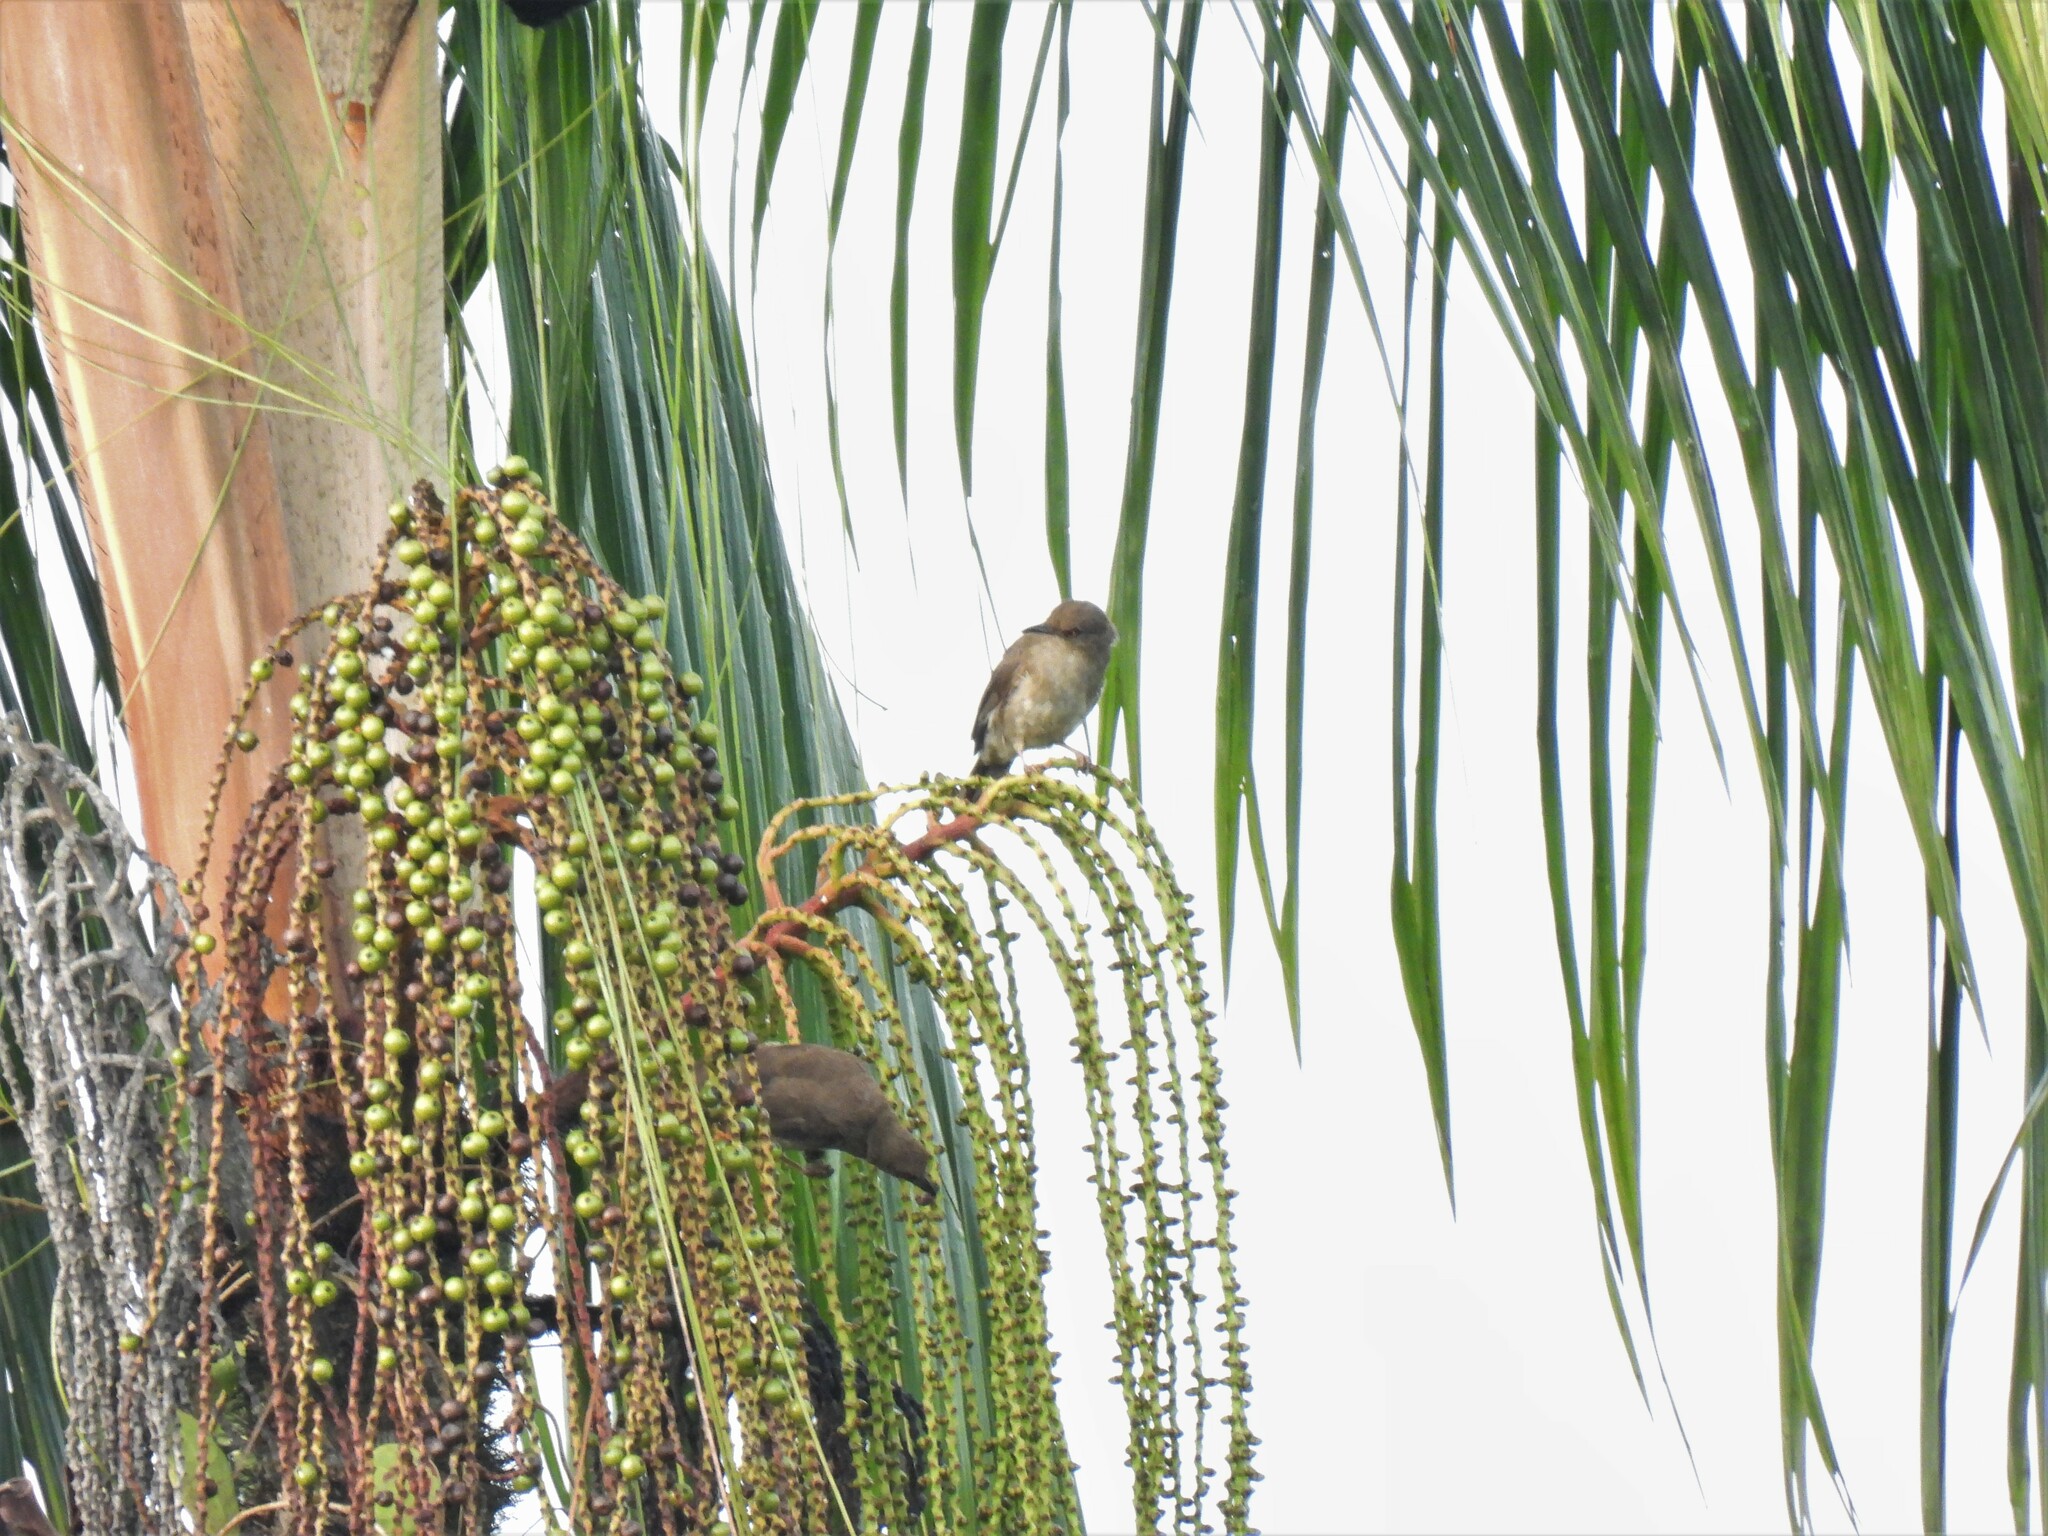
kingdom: Animalia
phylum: Chordata
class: Aves
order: Passeriformes
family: Pycnonotidae
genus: Pycnonotus
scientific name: Pycnonotus brunneus
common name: Asian red-eyed bulbul
